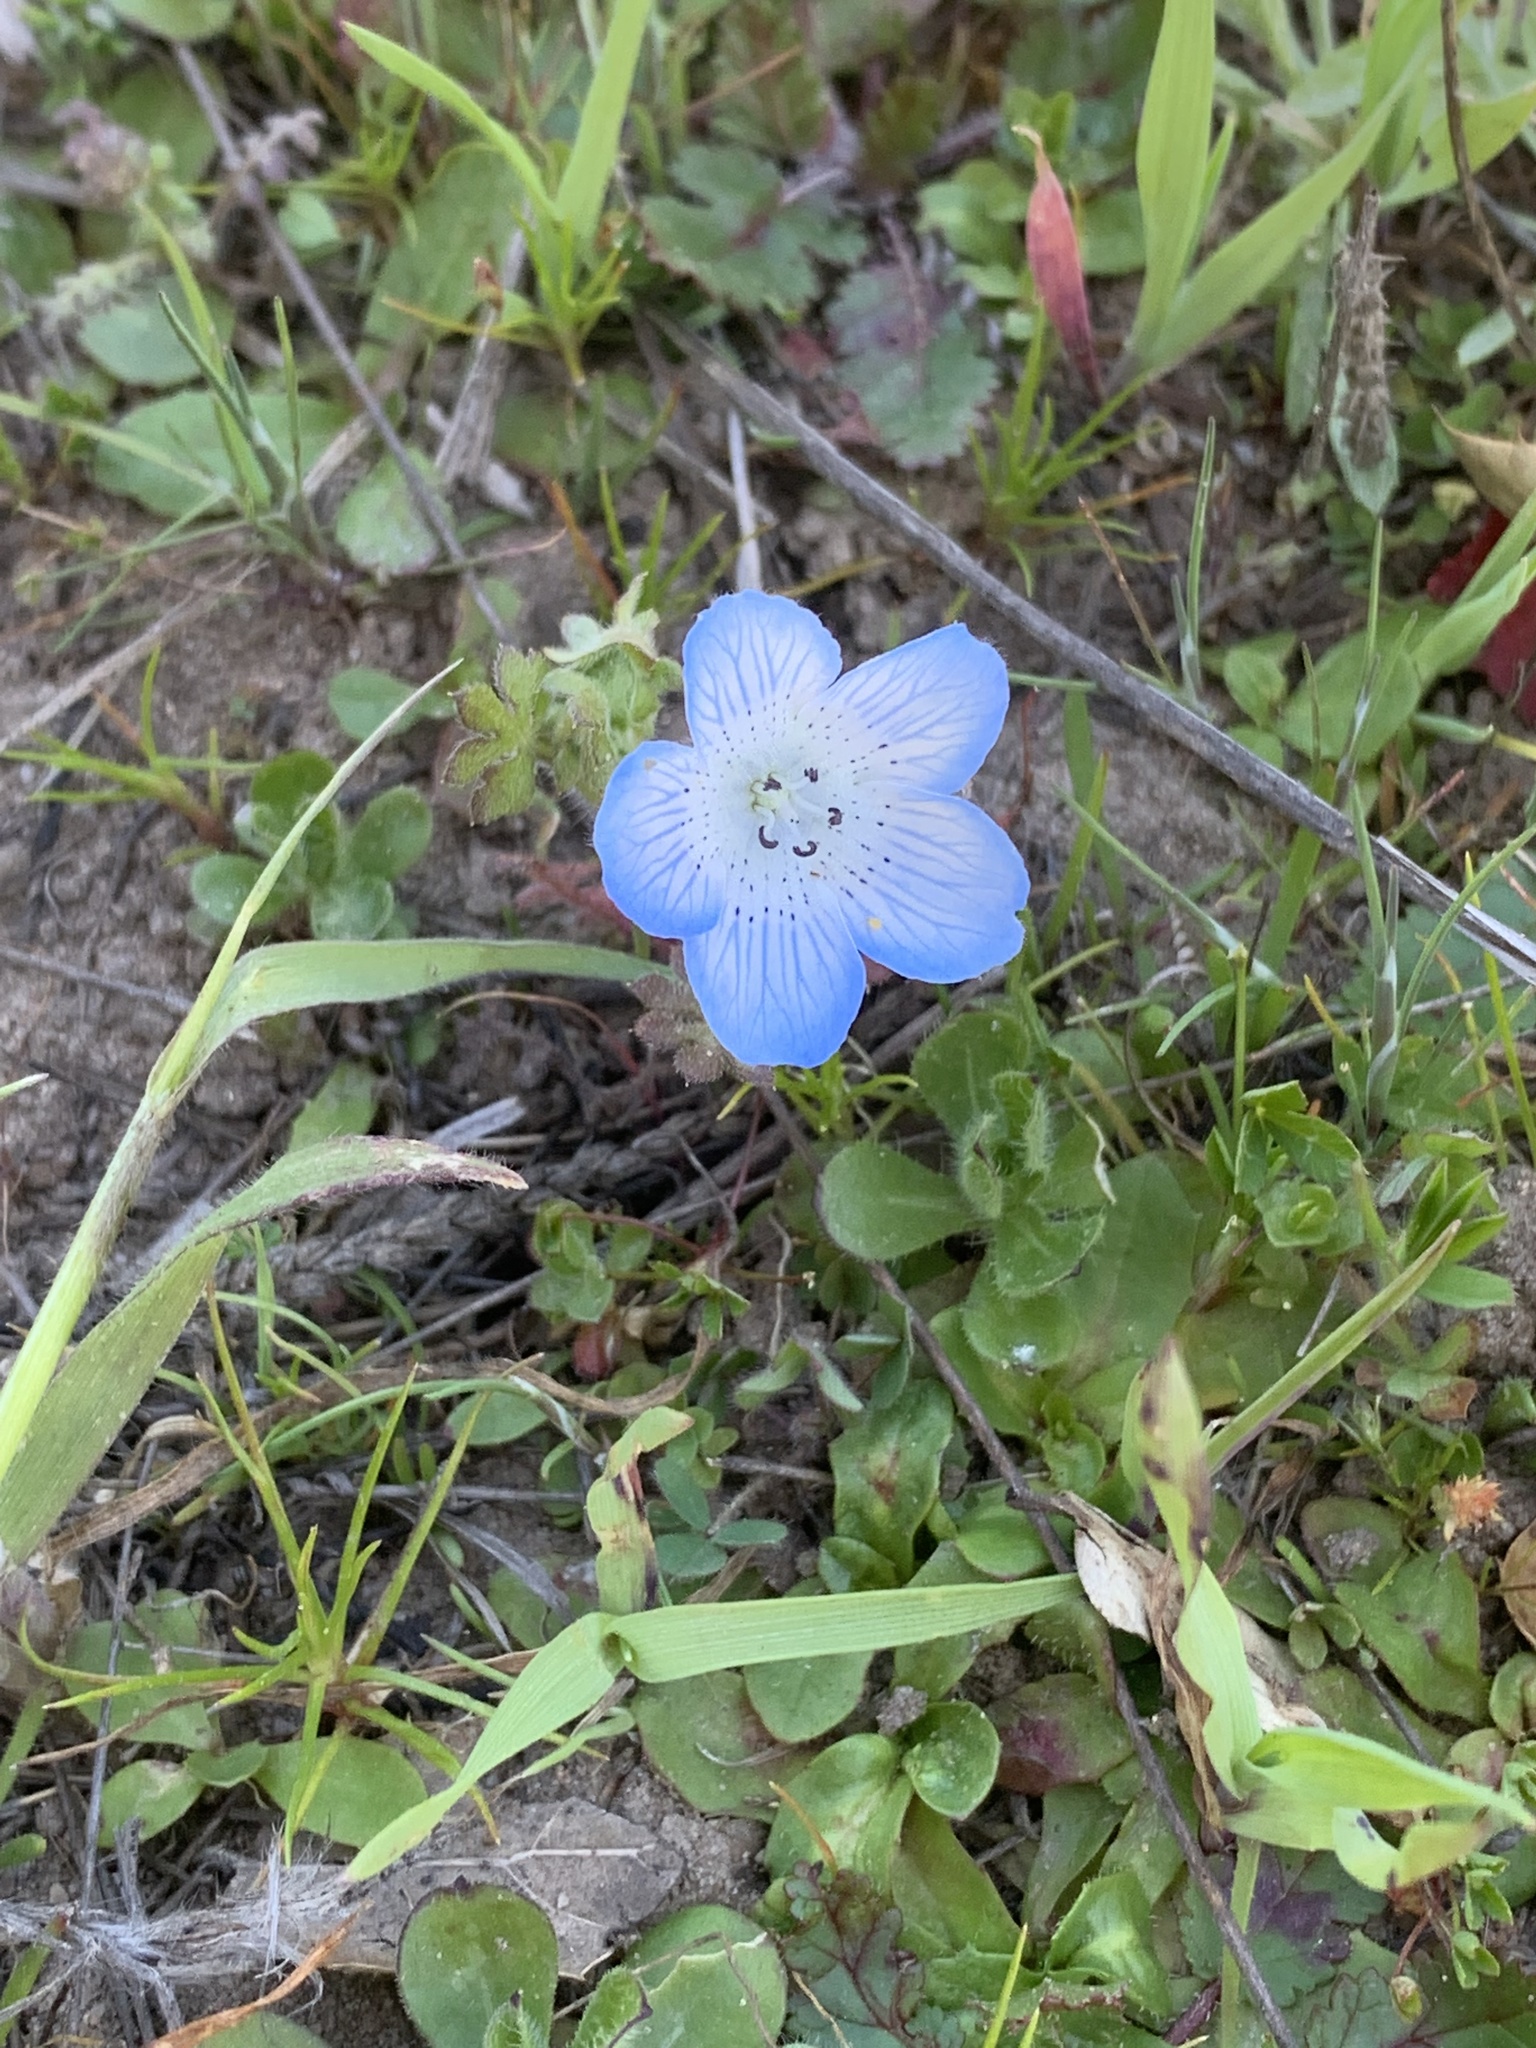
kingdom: Plantae
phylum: Tracheophyta
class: Magnoliopsida
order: Boraginales
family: Hydrophyllaceae
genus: Nemophila
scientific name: Nemophila menziesii
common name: Baby's-blue-eyes
